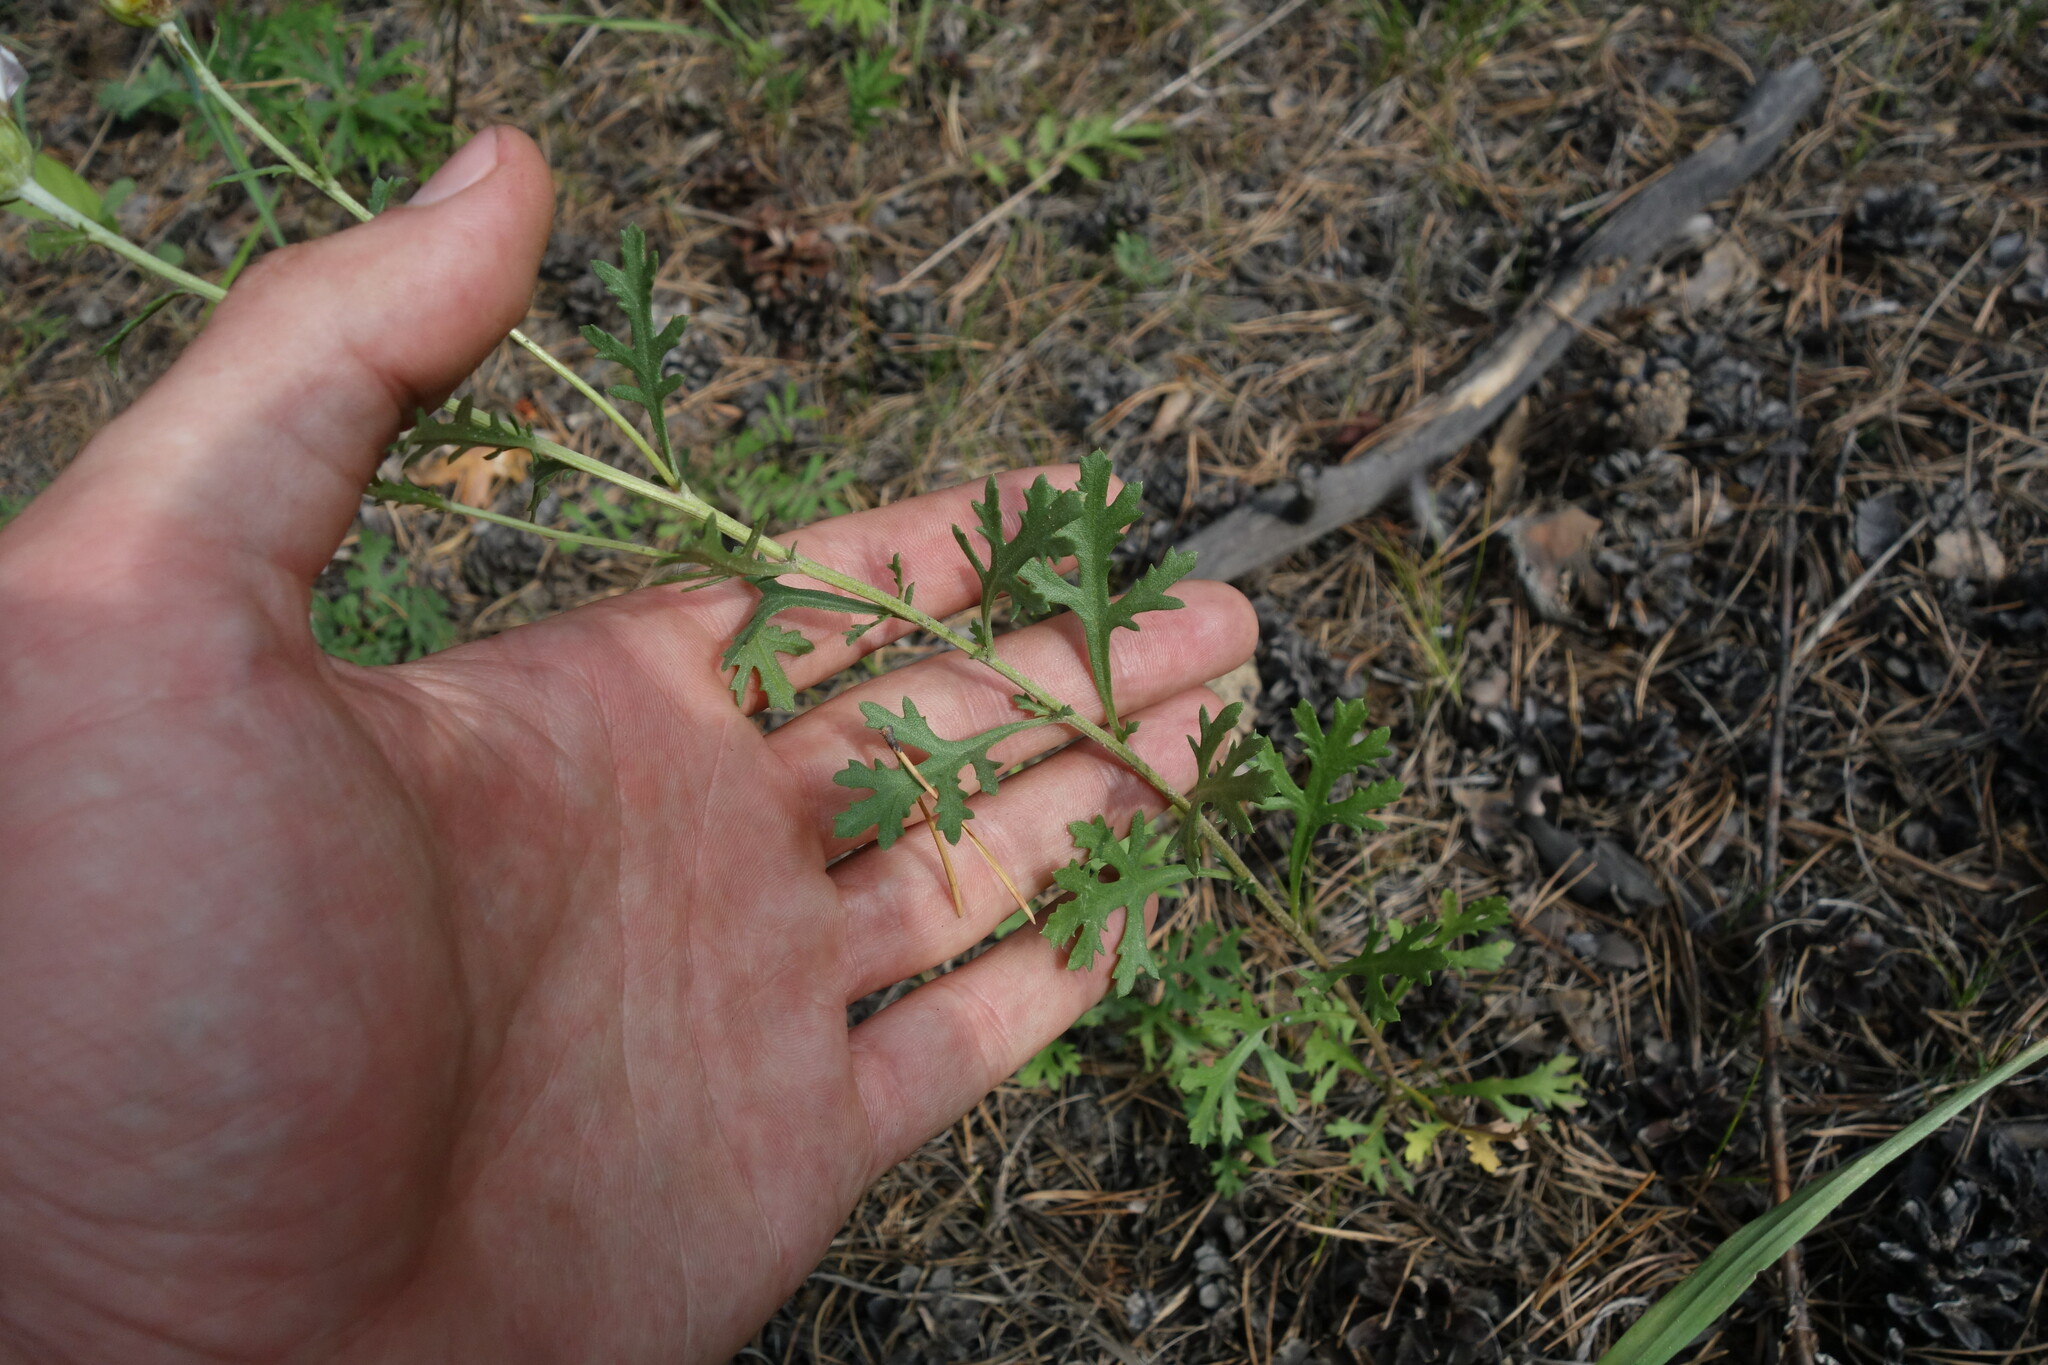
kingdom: Plantae
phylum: Tracheophyta
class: Magnoliopsida
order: Asterales
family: Asteraceae
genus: Chrysanthemum
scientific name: Chrysanthemum zawadzkii
